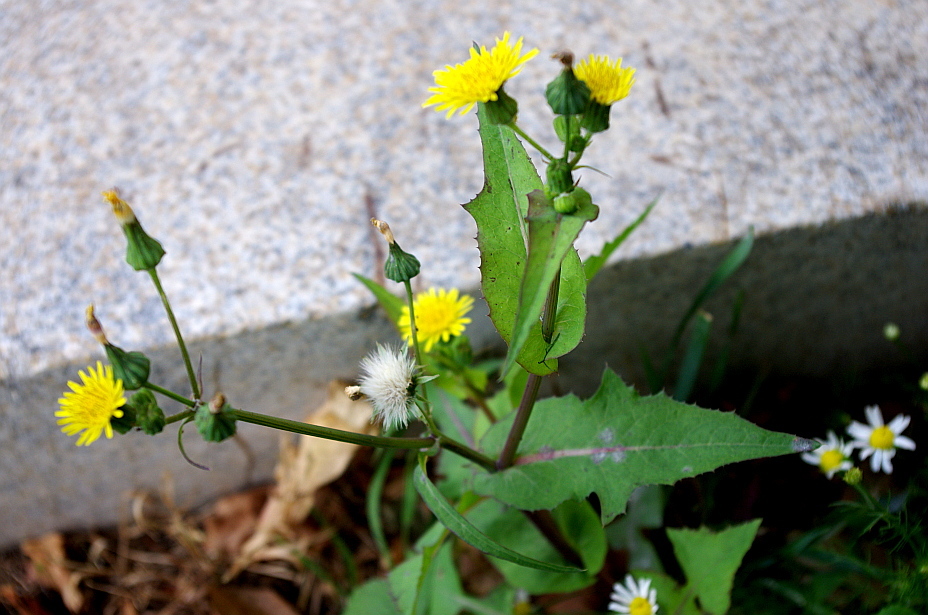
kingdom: Plantae
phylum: Tracheophyta
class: Magnoliopsida
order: Asterales
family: Asteraceae
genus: Sonchus
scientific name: Sonchus oleraceus
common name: Common sowthistle
